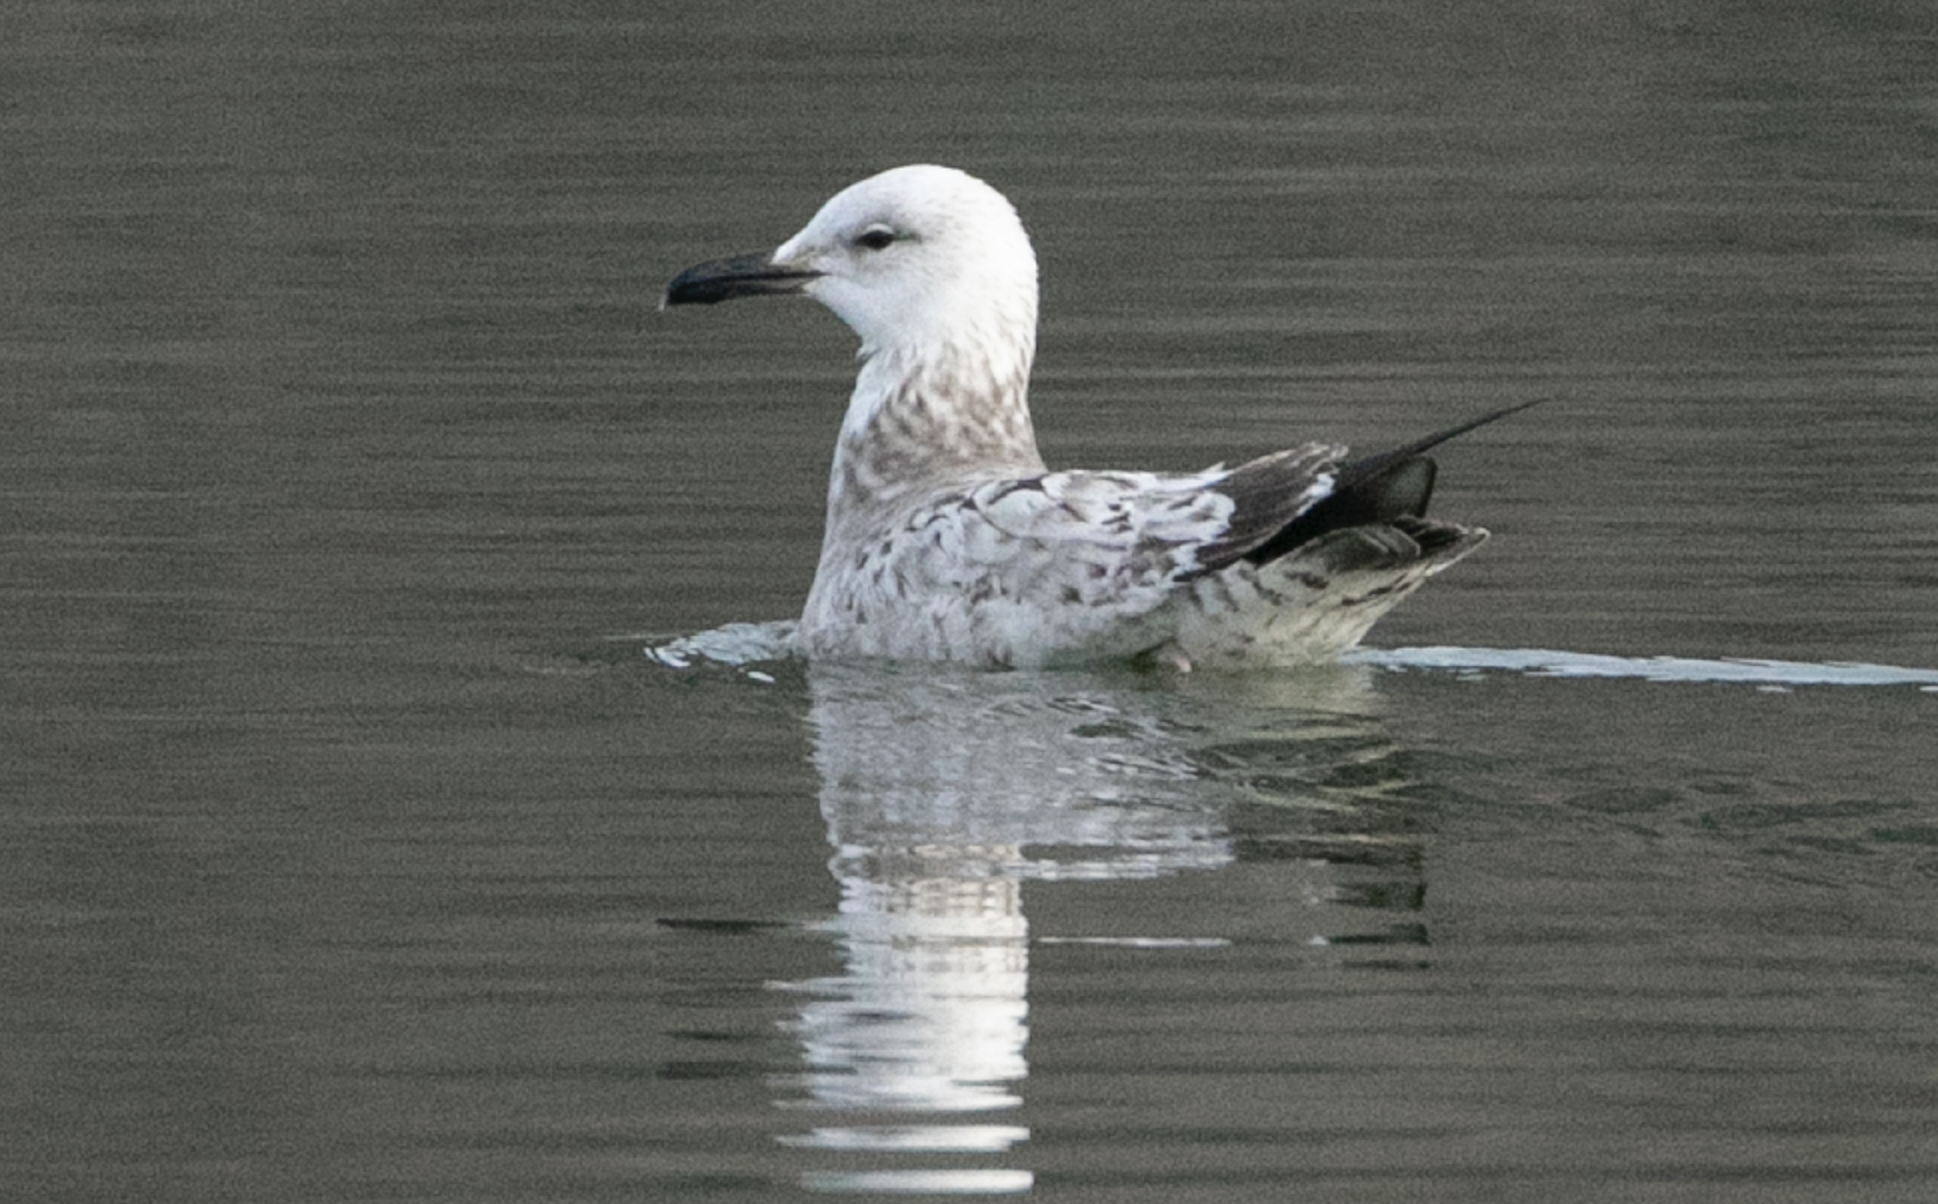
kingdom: Animalia
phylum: Chordata
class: Aves
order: Charadriiformes
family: Laridae
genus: Larus
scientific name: Larus cachinnans
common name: Caspian gull
